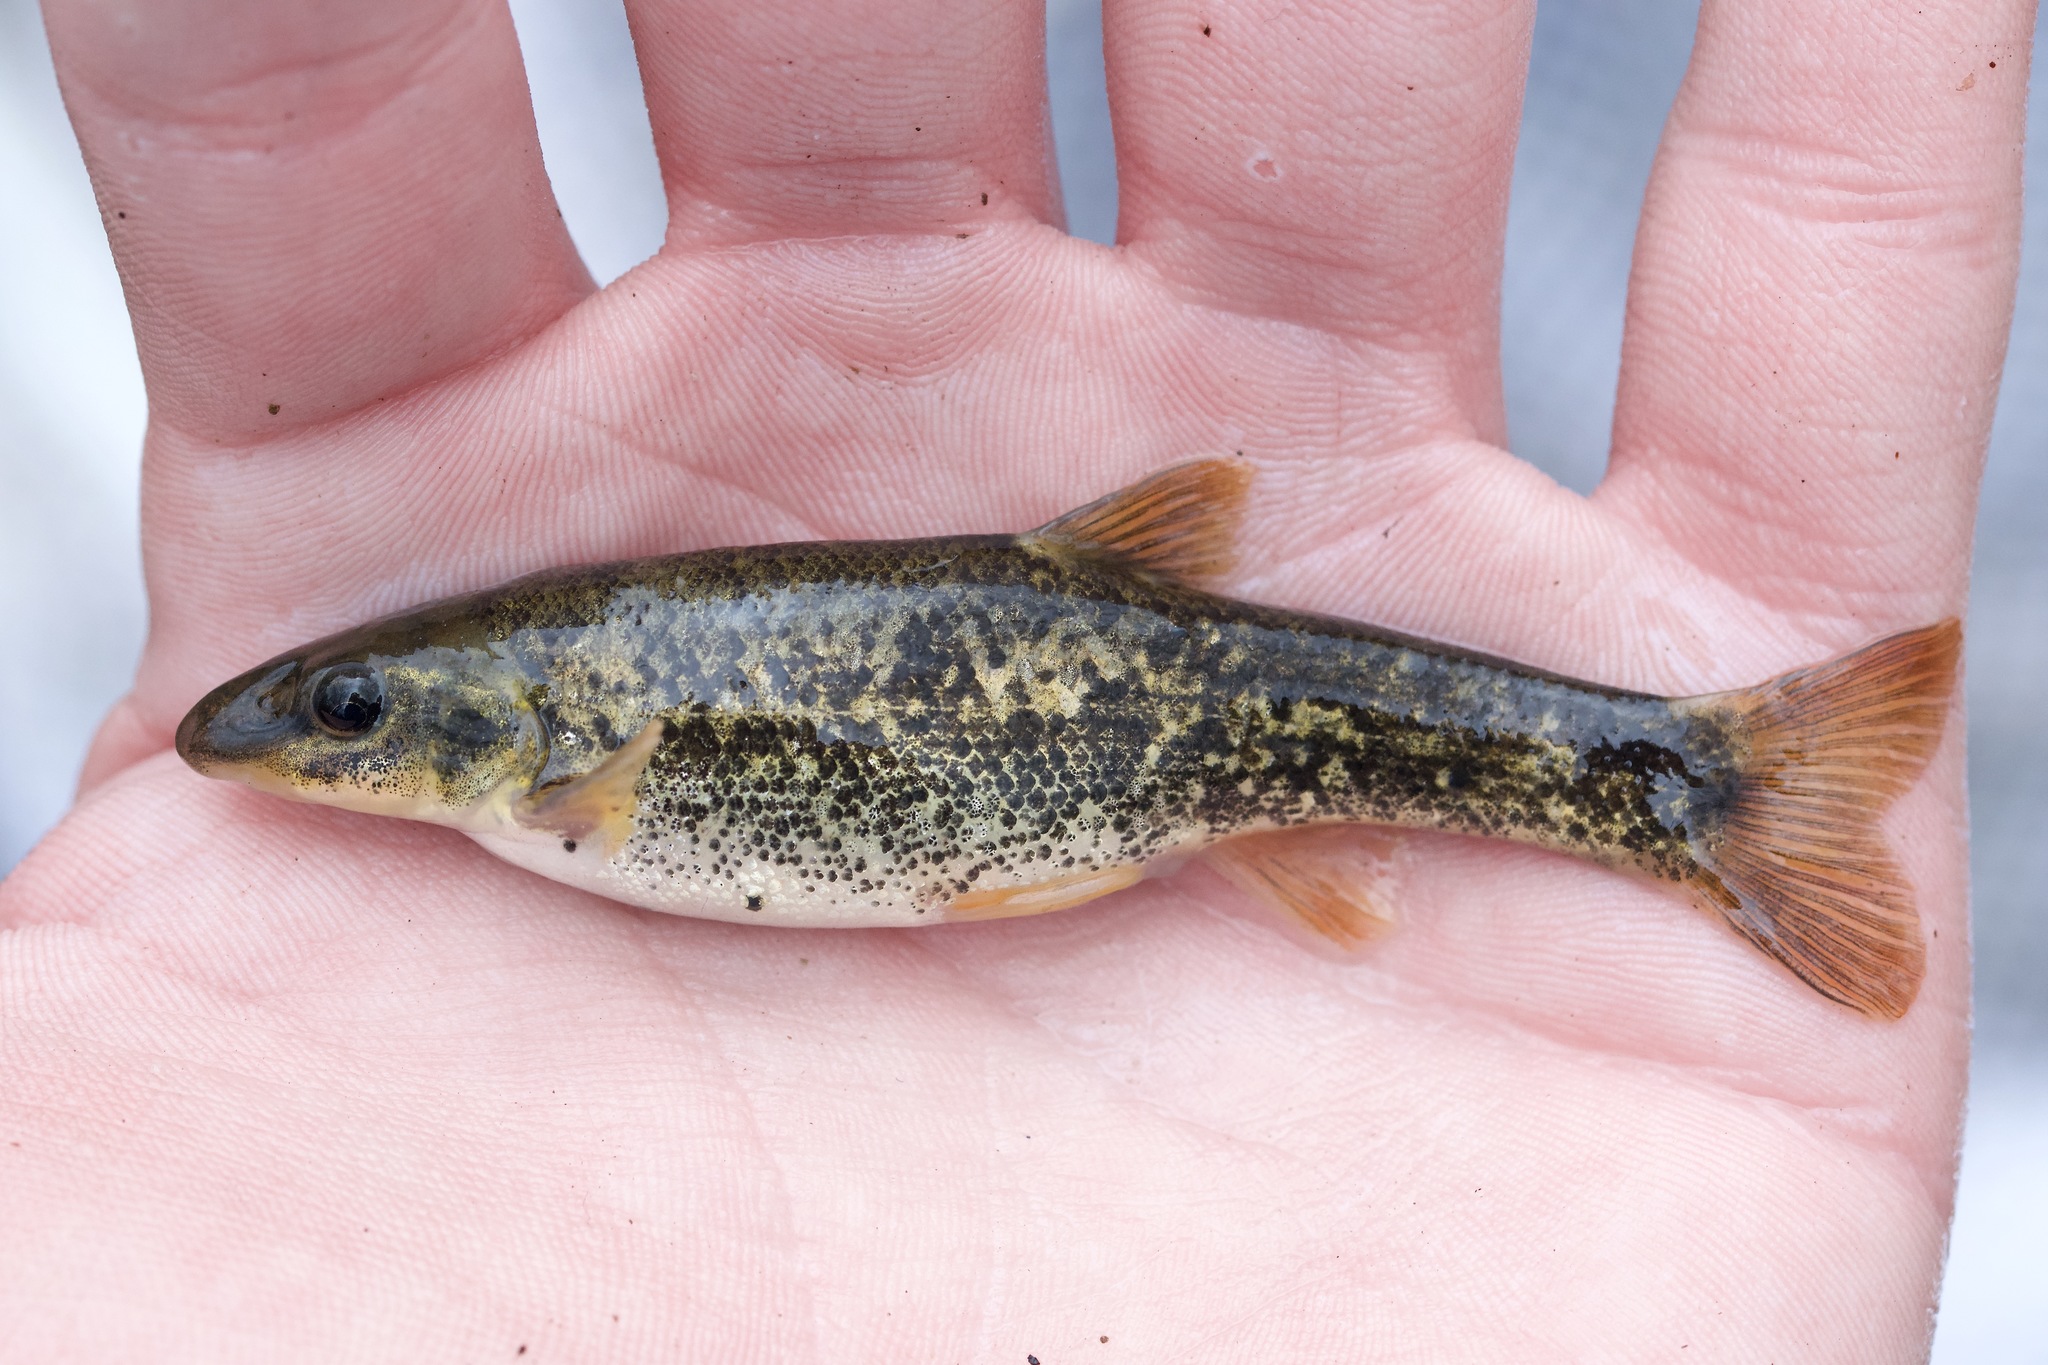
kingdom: Animalia
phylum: Chordata
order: Cypriniformes
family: Cyprinidae
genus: Rhinichthys
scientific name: Rhinichthys cataractae
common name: Longnose dace
